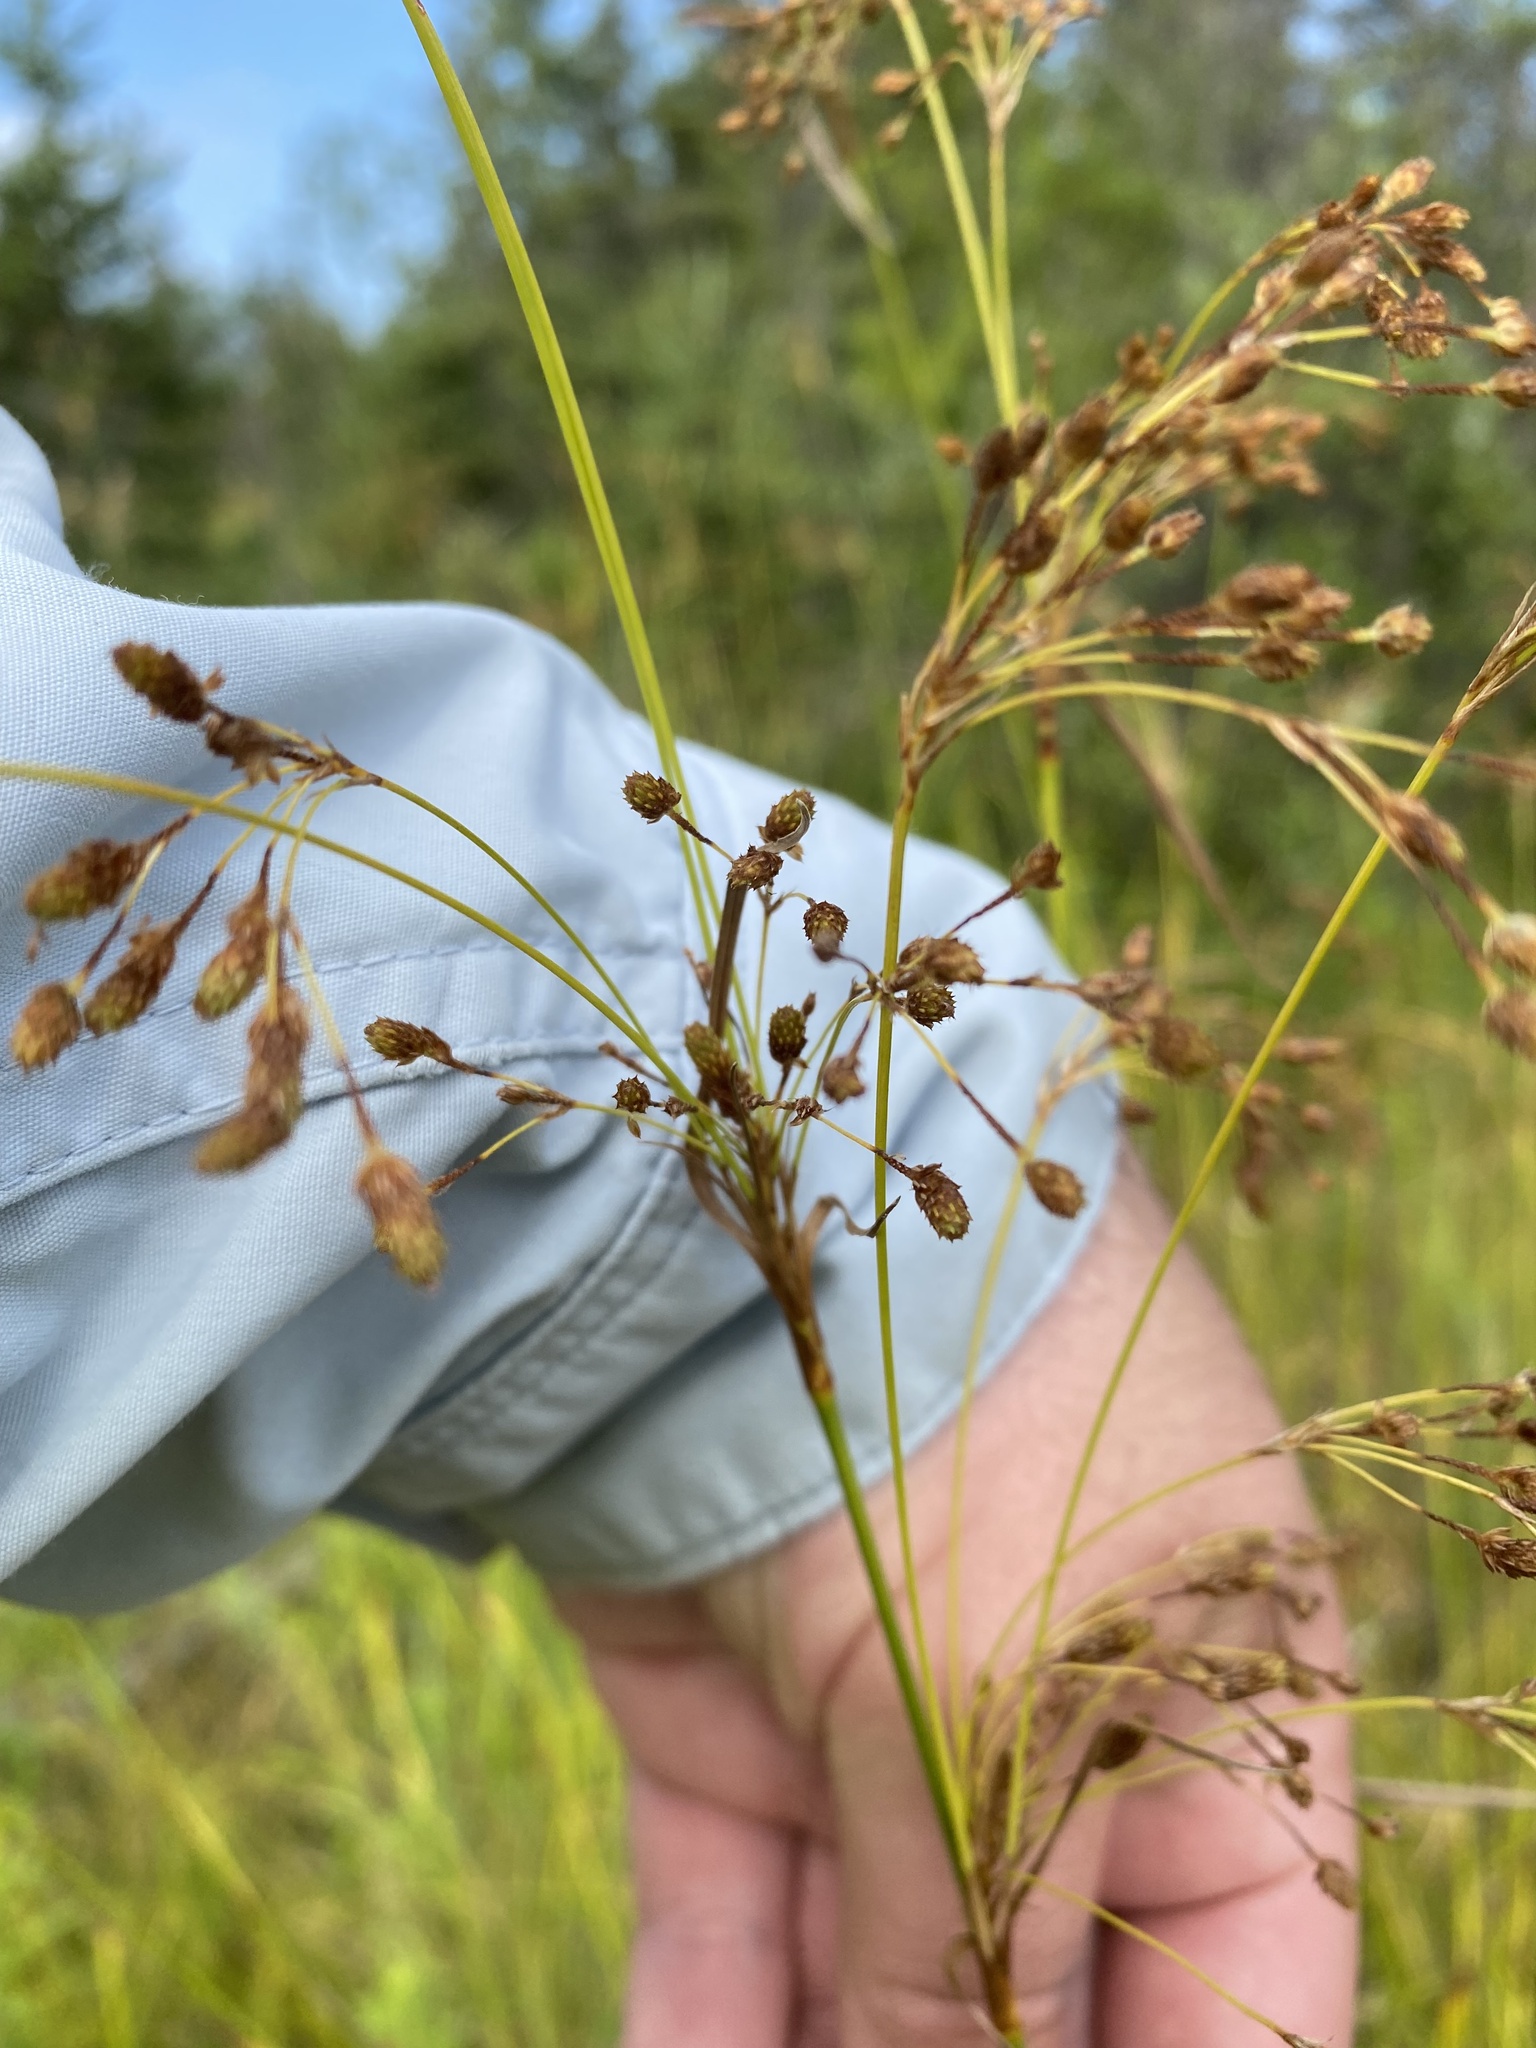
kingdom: Plantae
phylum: Tracheophyta
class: Liliopsida
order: Poales
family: Cyperaceae
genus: Scirpus
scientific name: Scirpus pendulus
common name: Nodding bulrush
